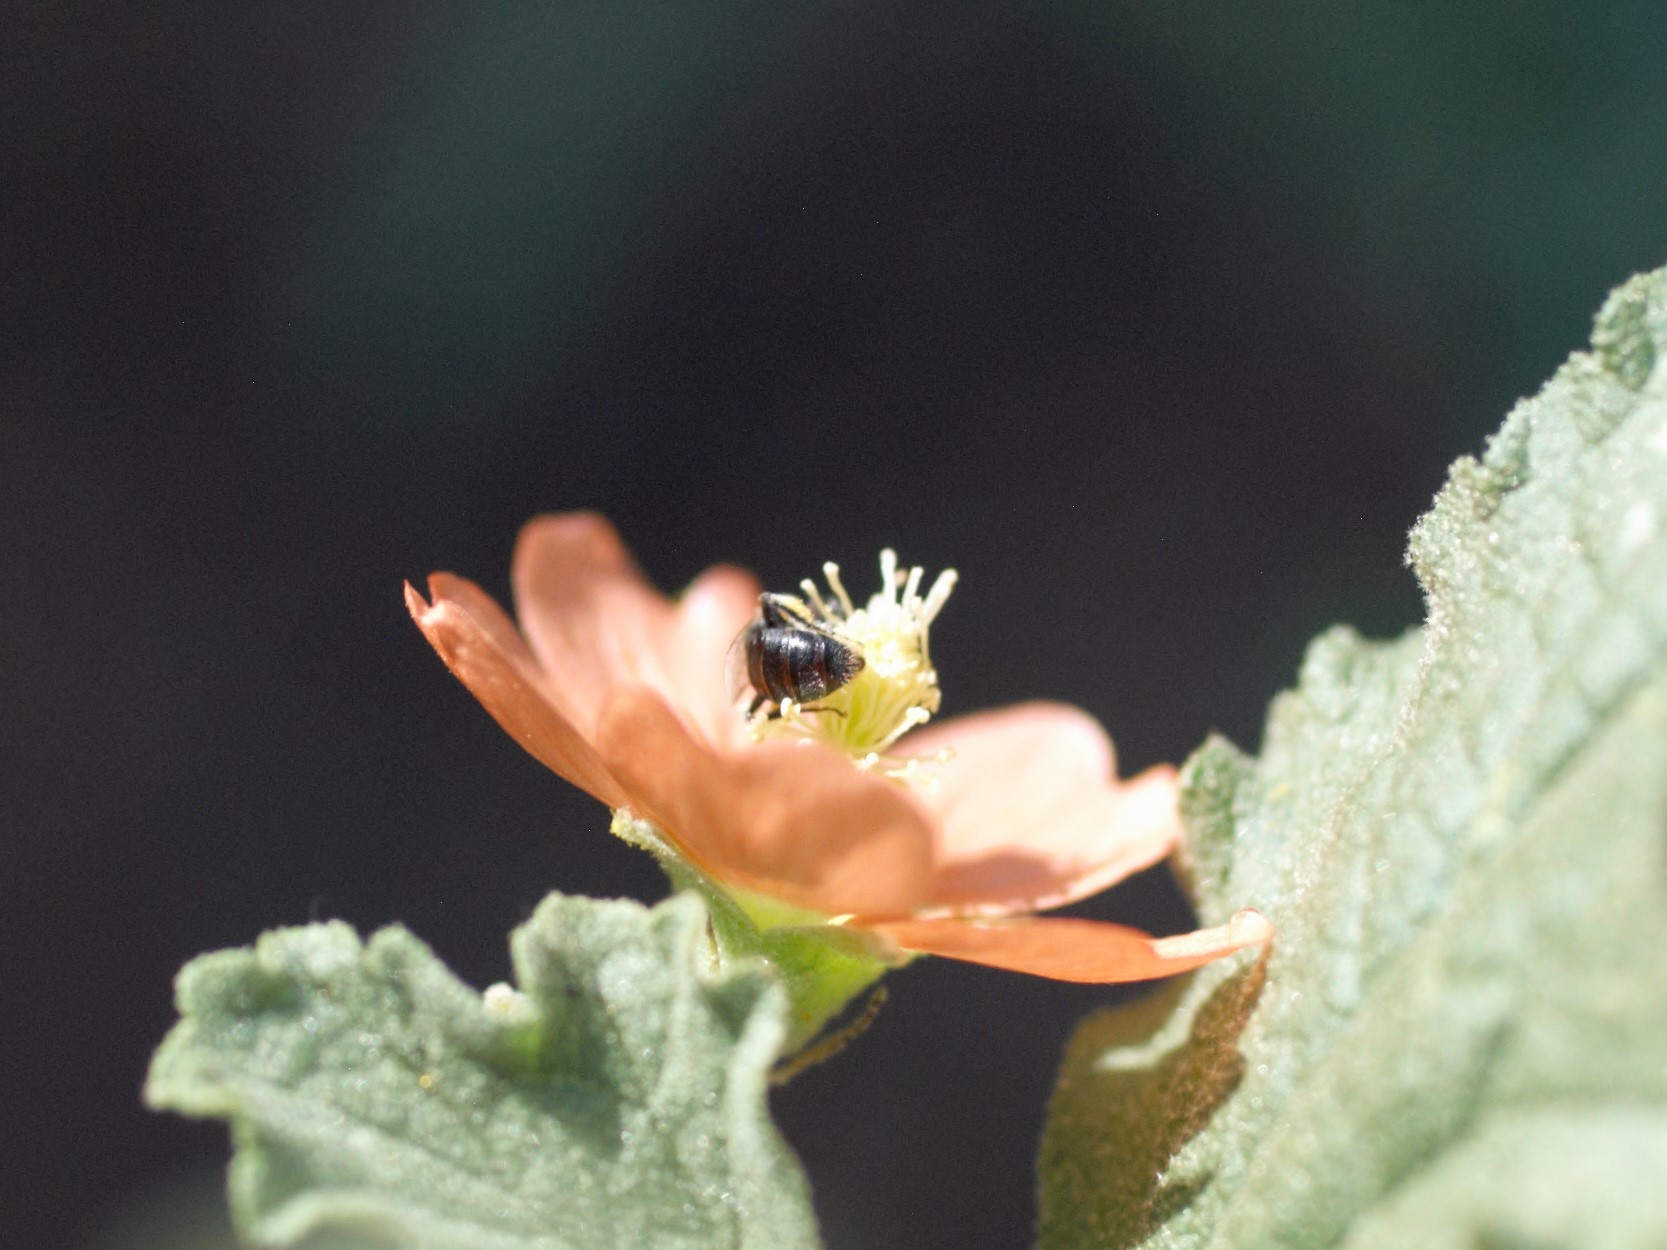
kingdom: Animalia
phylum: Arthropoda
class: Insecta
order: Hymenoptera
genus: Macroteropsis
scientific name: Macroteropsis
